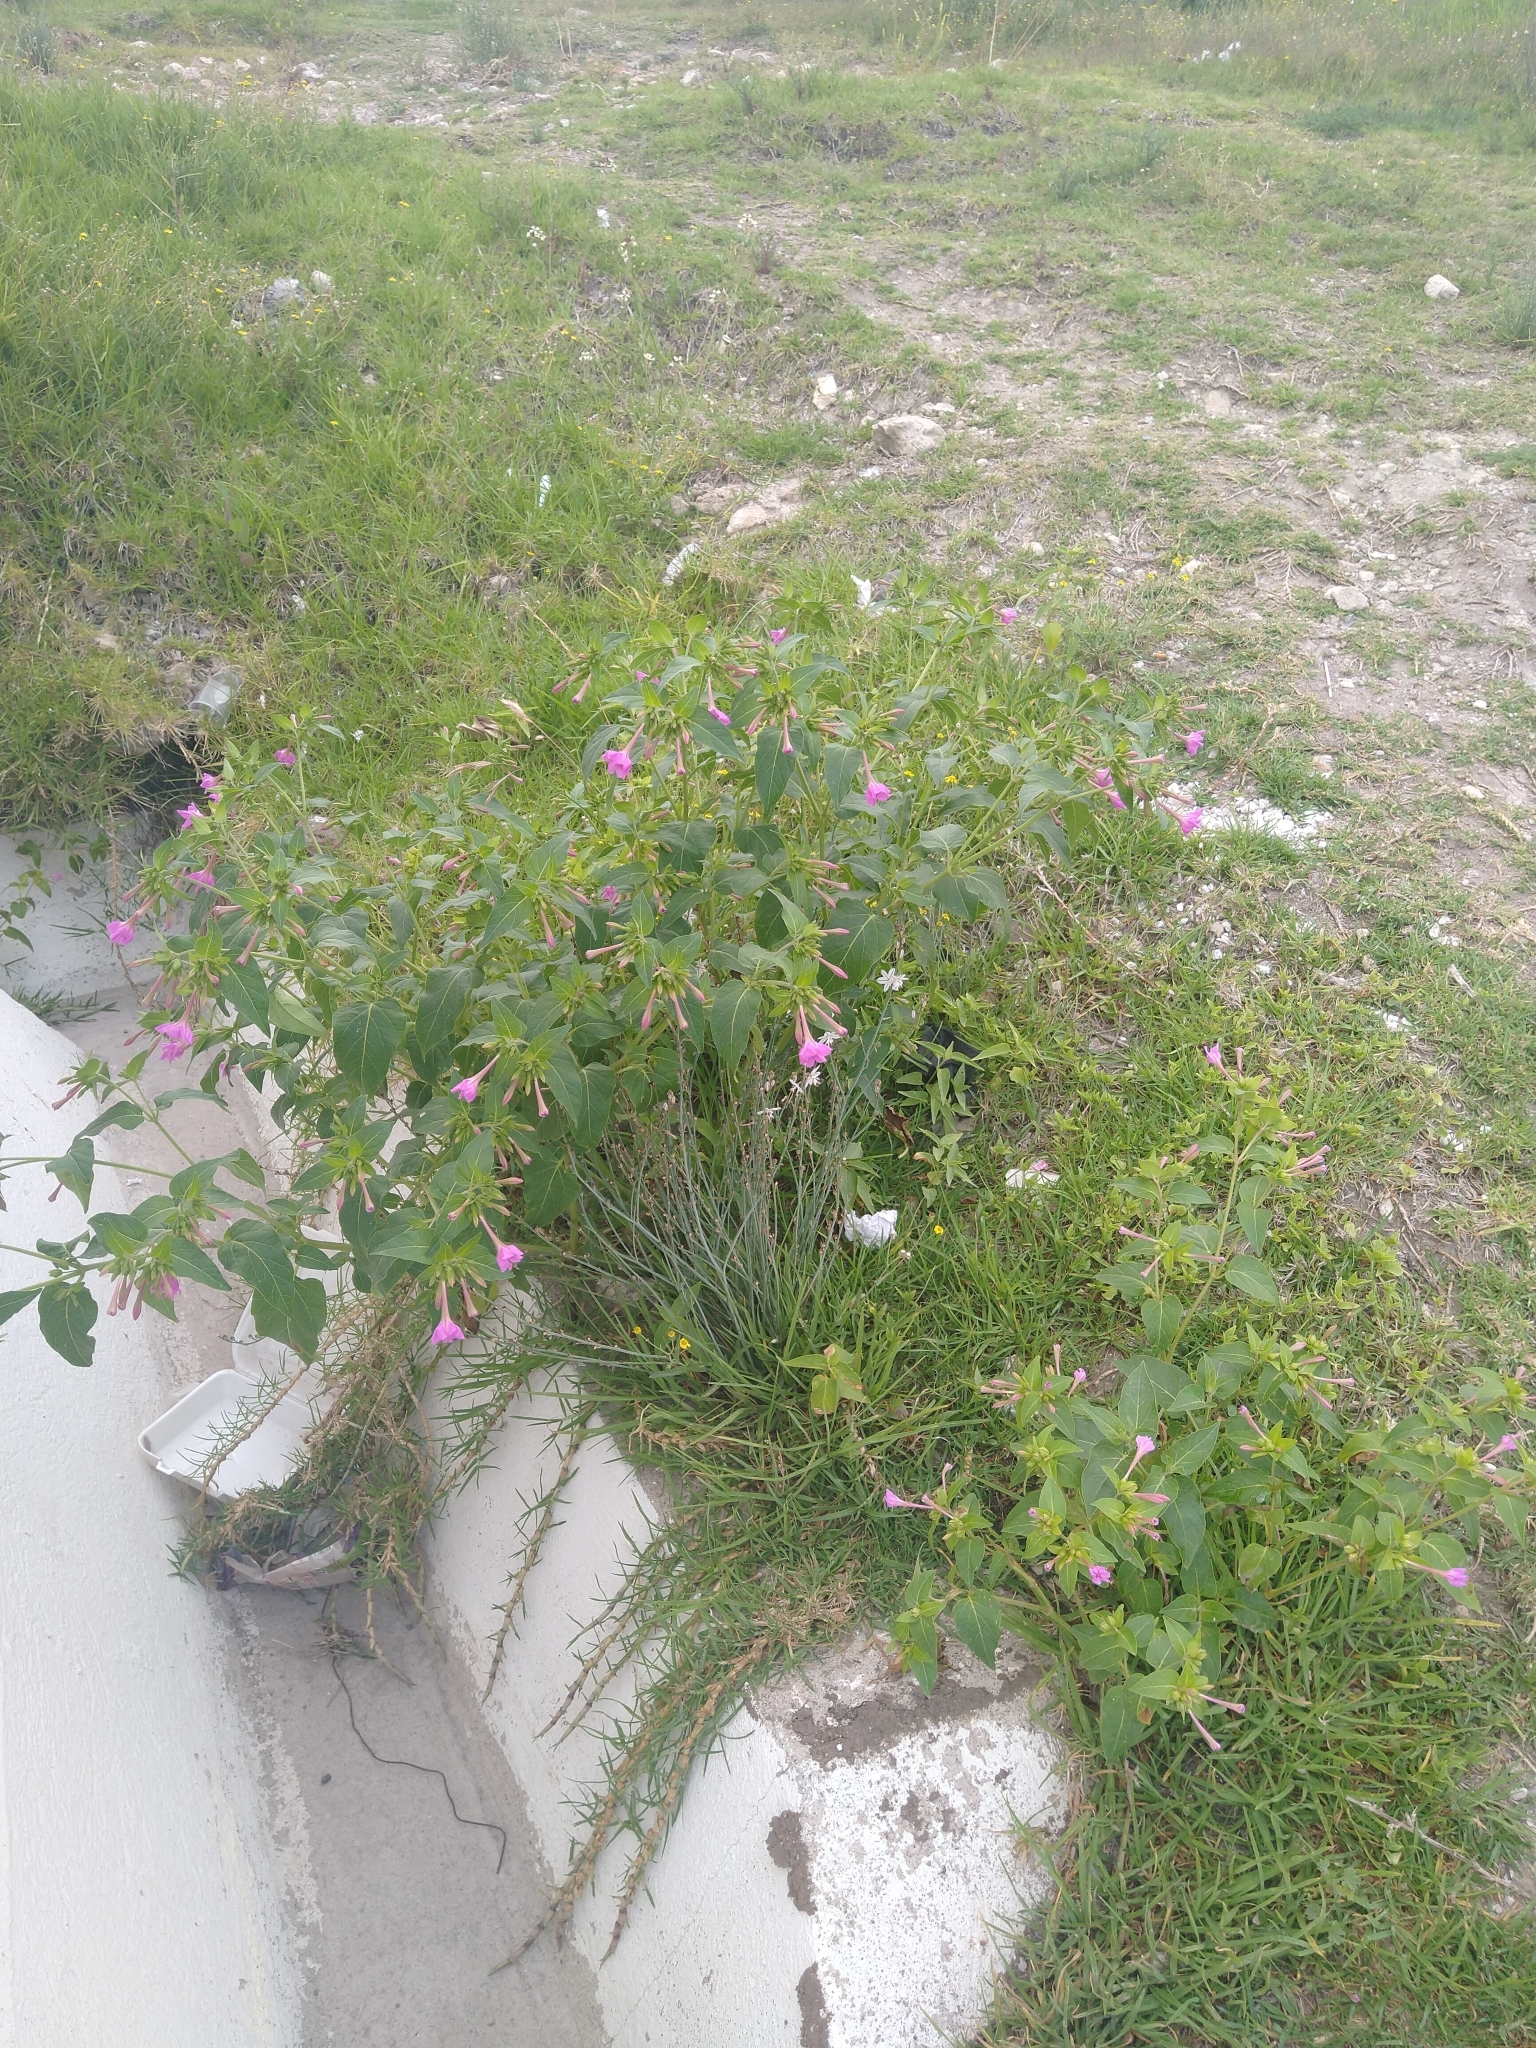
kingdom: Plantae
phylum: Tracheophyta
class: Magnoliopsida
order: Caryophyllales
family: Nyctaginaceae
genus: Mirabilis
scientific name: Mirabilis jalapa
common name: Marvel-of-peru
